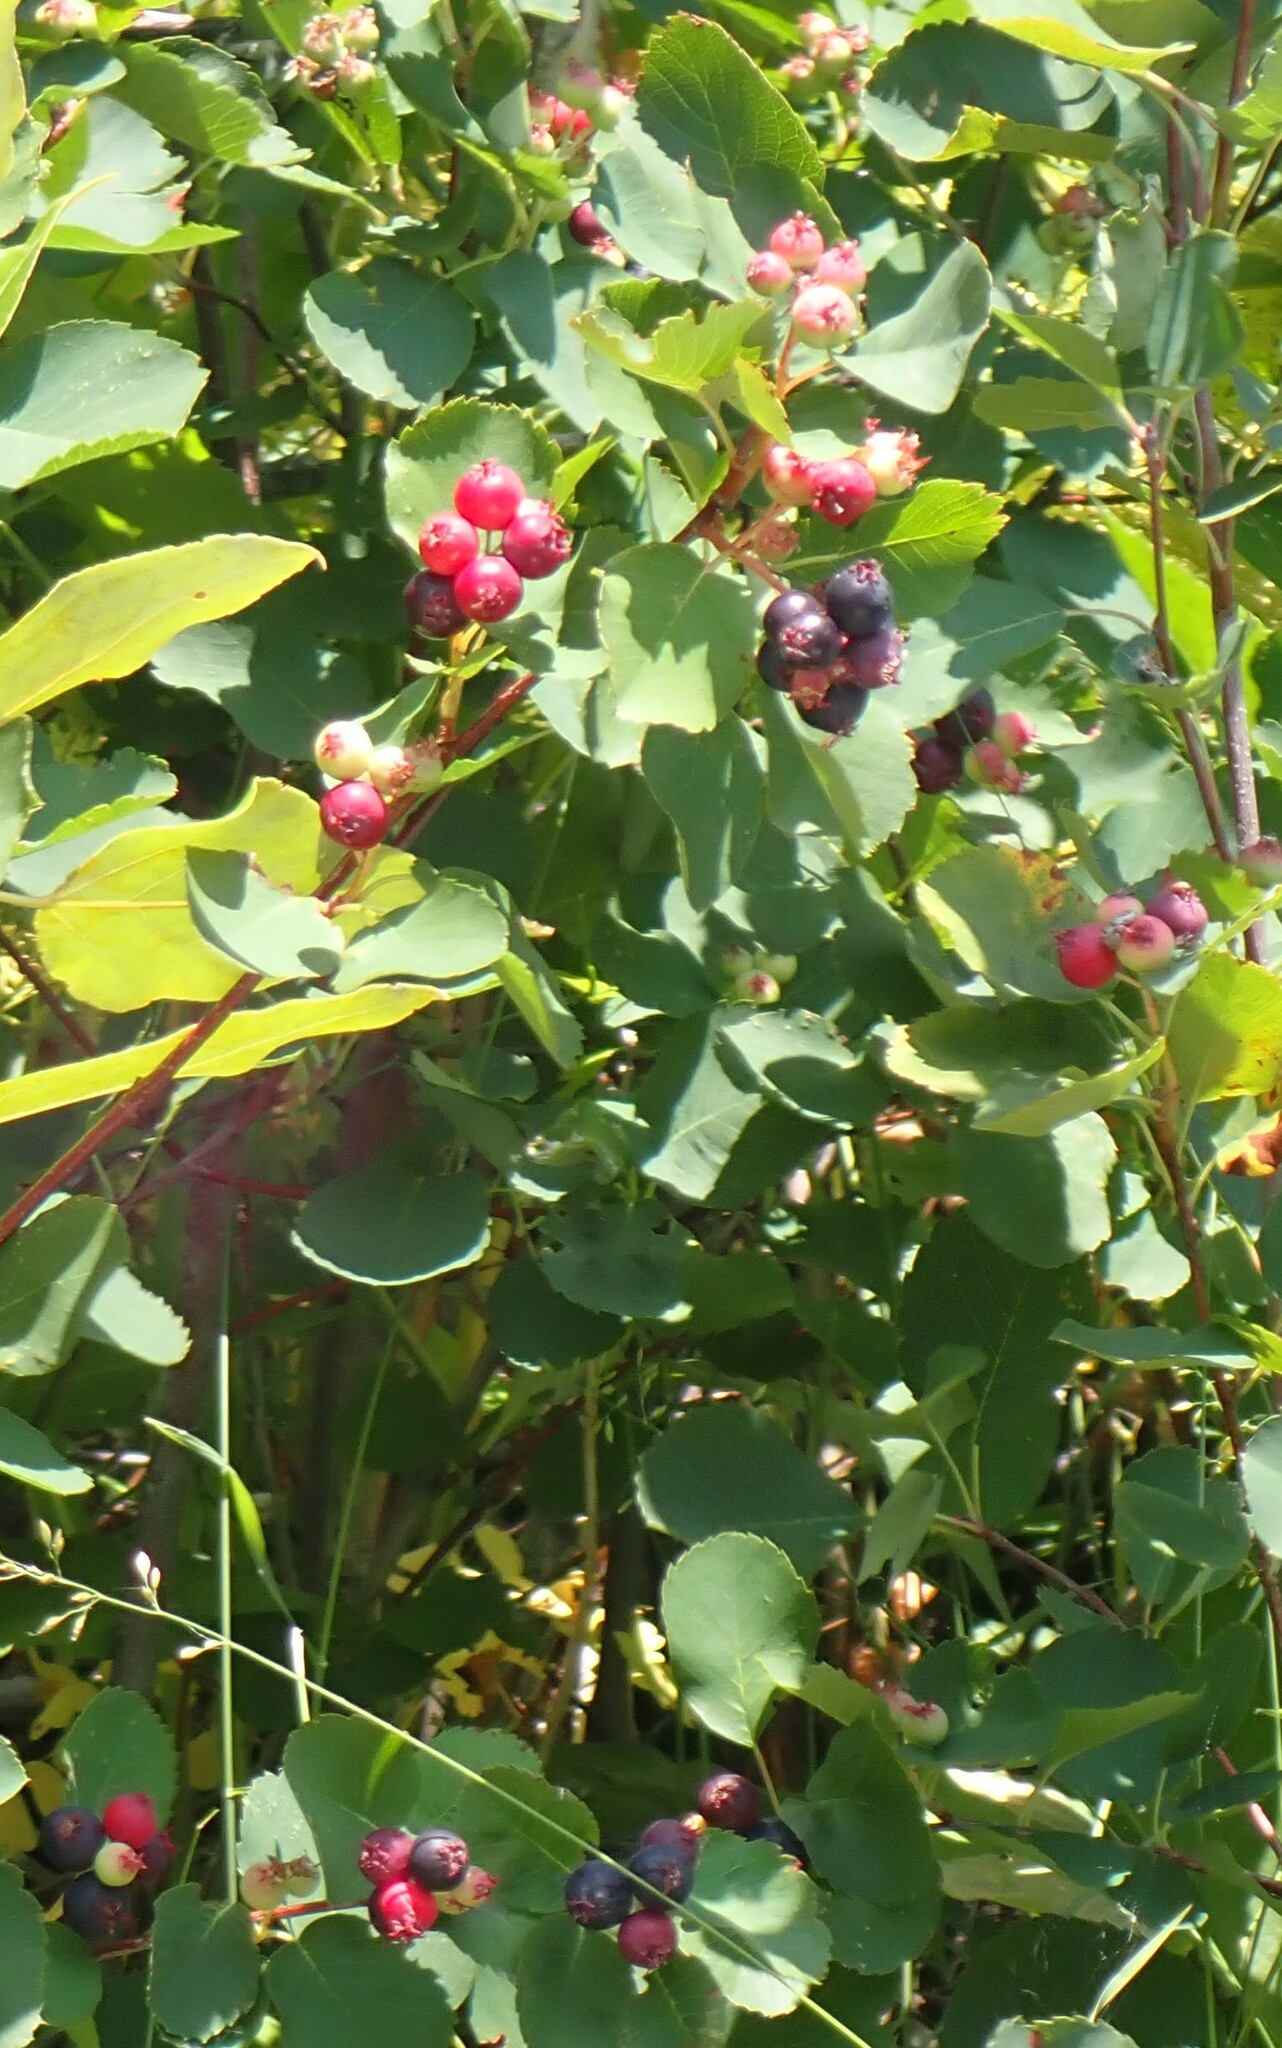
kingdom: Plantae
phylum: Tracheophyta
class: Magnoliopsida
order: Rosales
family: Rosaceae
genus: Amelanchier
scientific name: Amelanchier alnifolia
